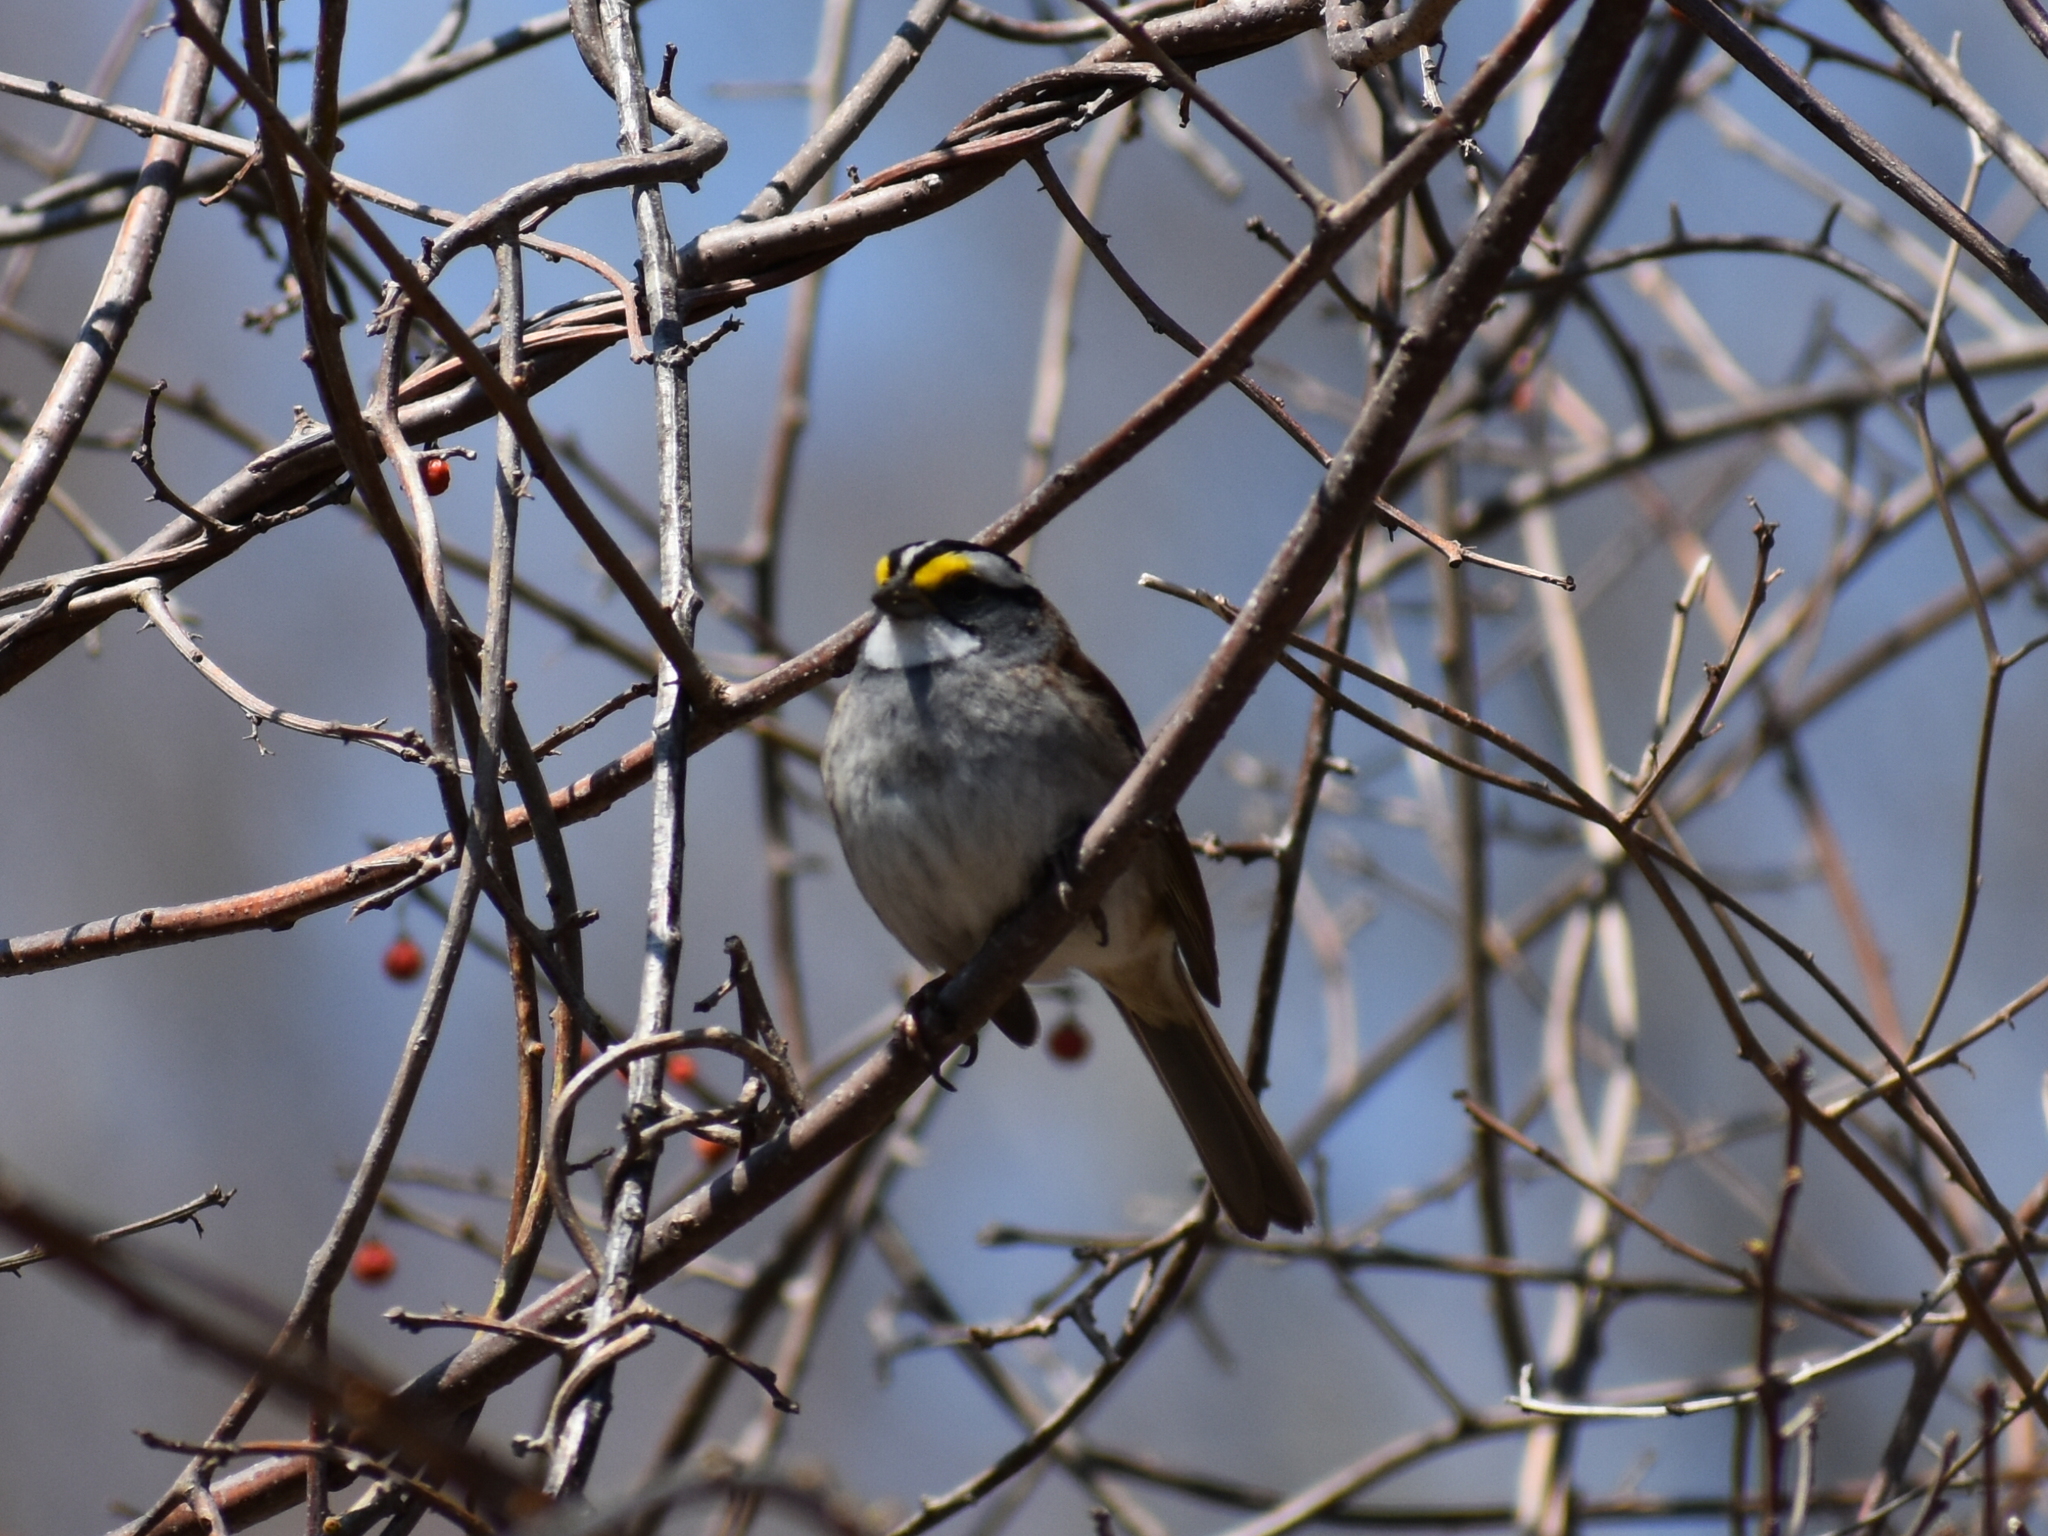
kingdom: Animalia
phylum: Chordata
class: Aves
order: Passeriformes
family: Passerellidae
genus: Zonotrichia
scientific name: Zonotrichia albicollis
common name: White-throated sparrow
